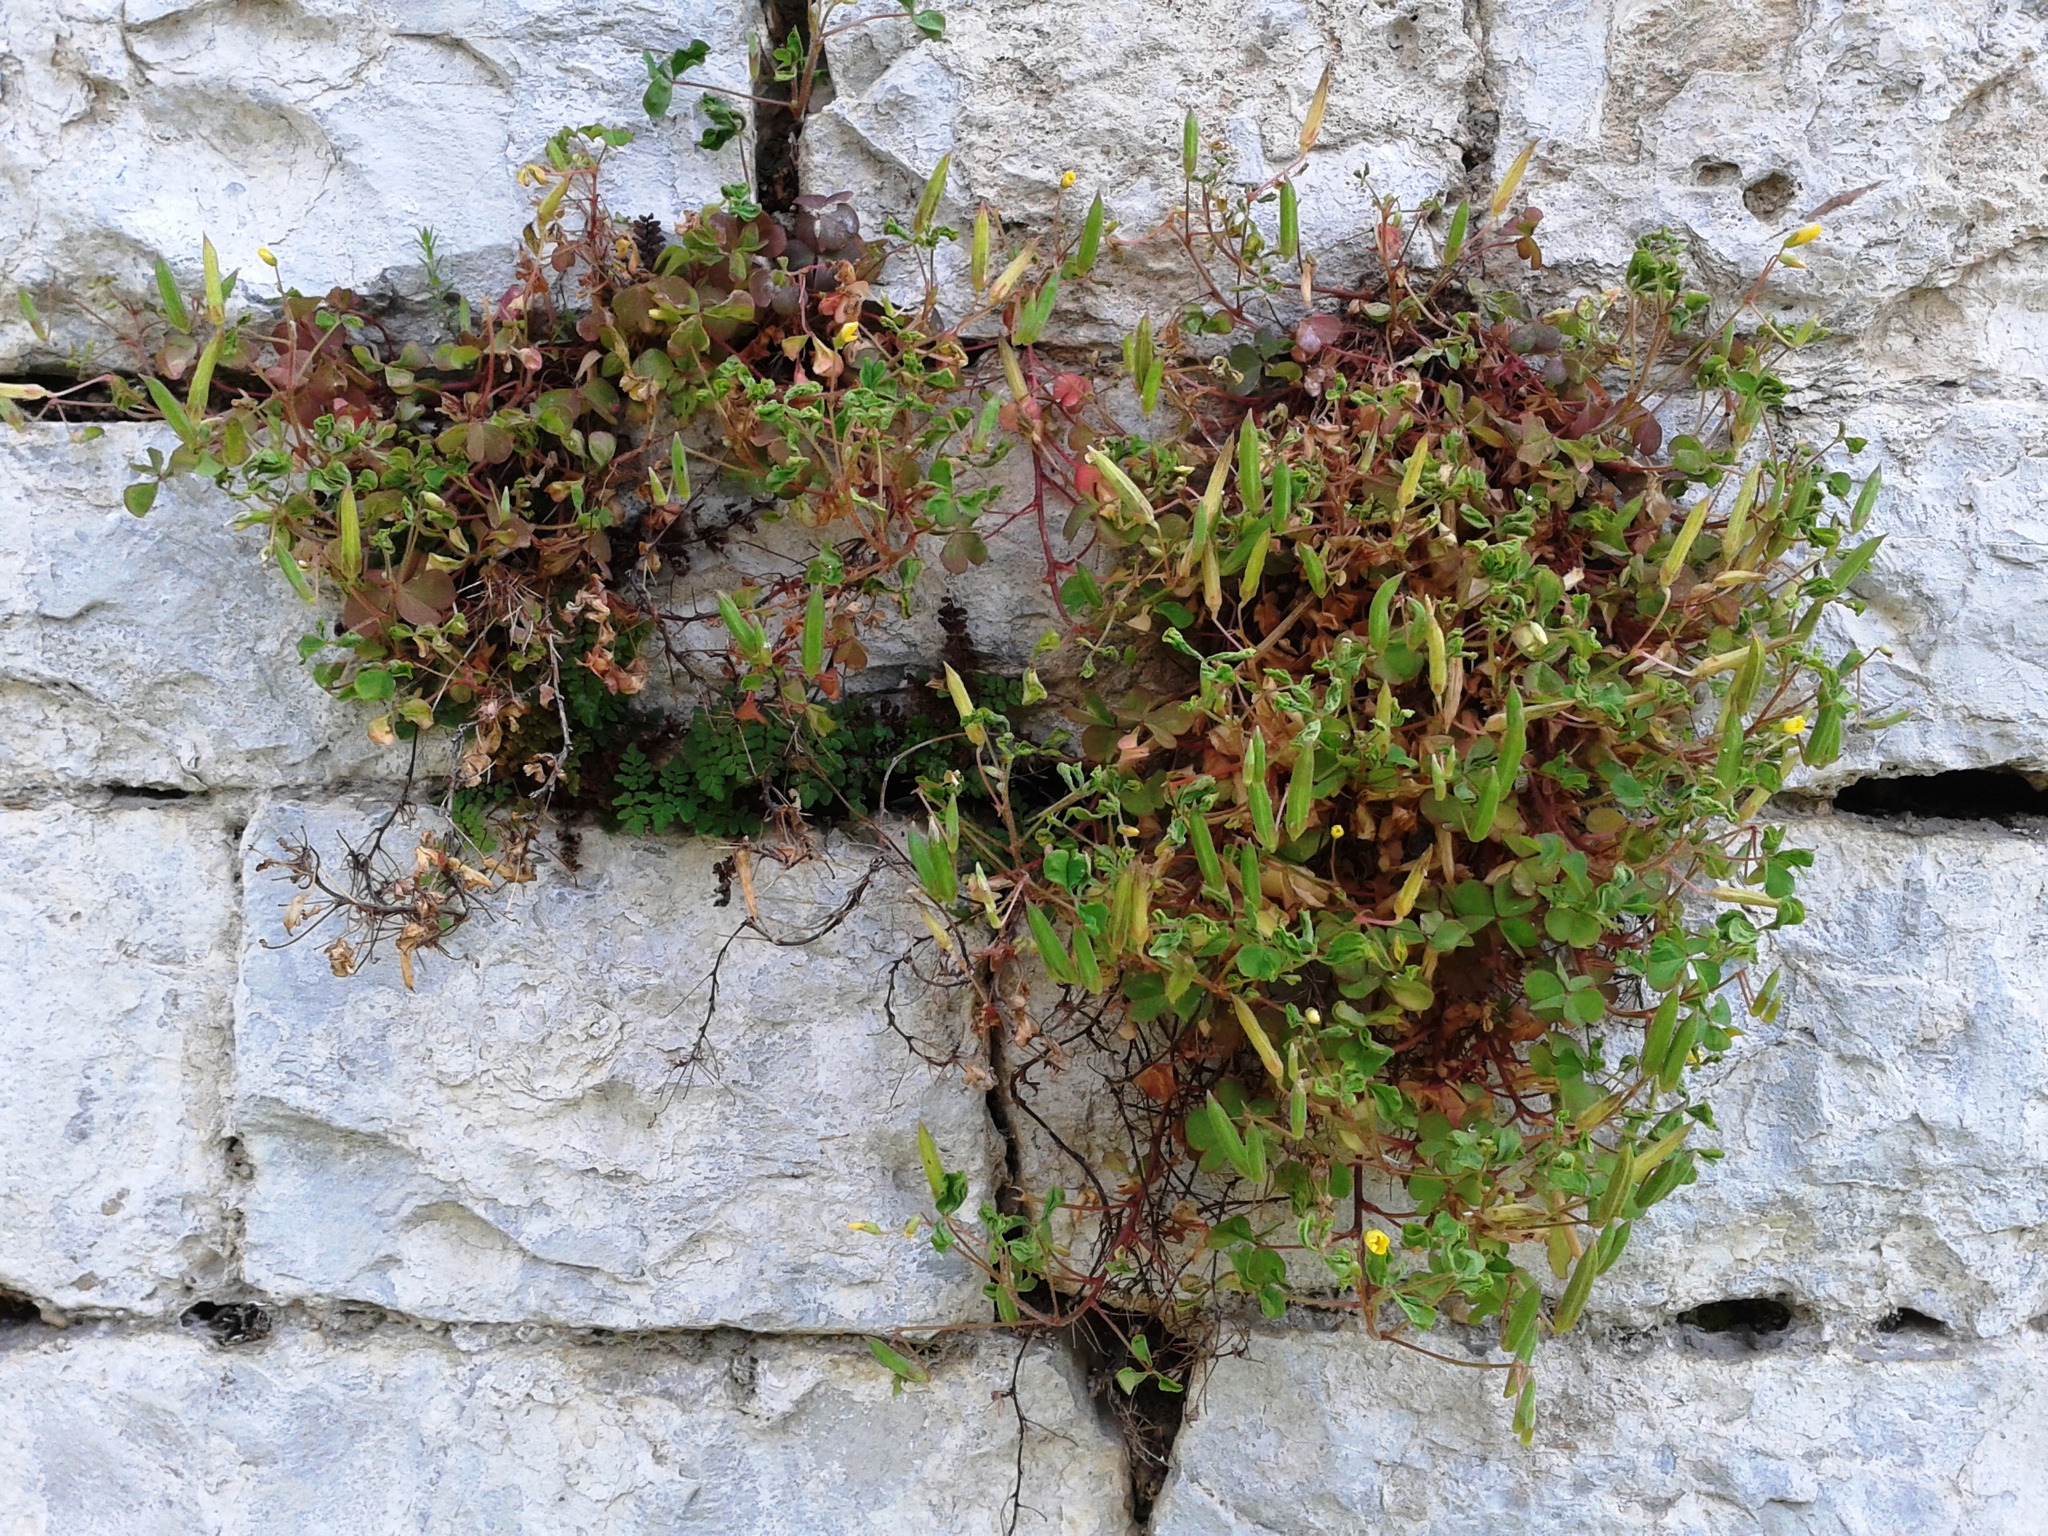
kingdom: Plantae
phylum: Tracheophyta
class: Magnoliopsida
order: Oxalidales
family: Oxalidaceae
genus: Oxalis
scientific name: Oxalis corniculata
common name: Procumbent yellow-sorrel
